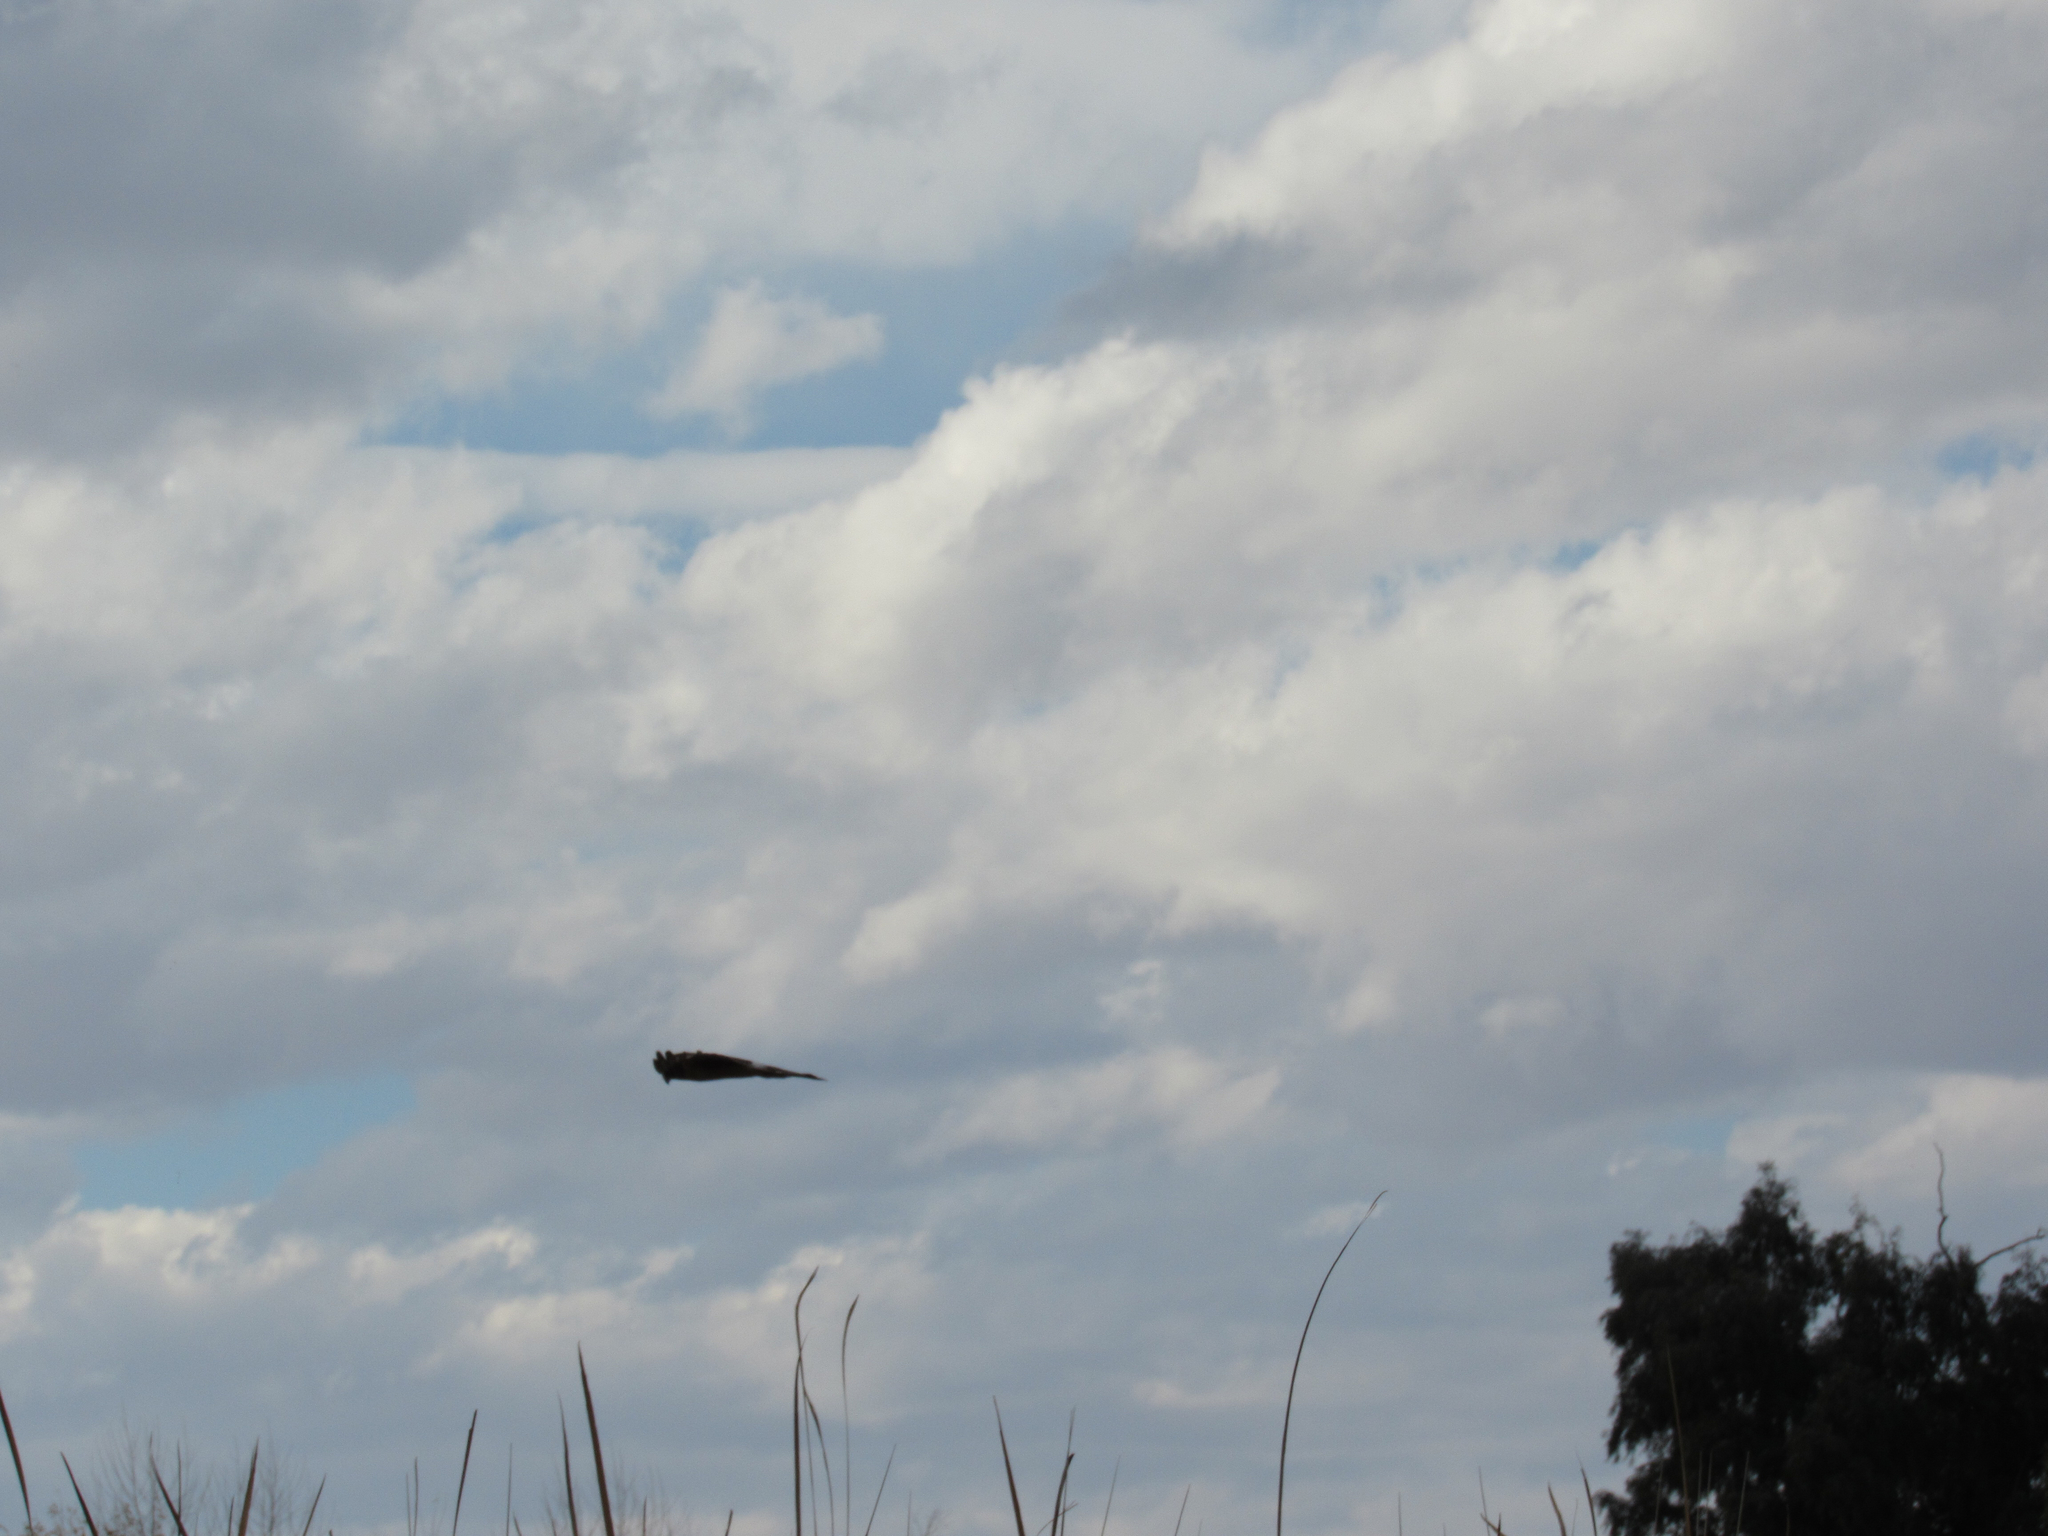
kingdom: Animalia
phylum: Chordata
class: Aves
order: Accipitriformes
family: Accipitridae
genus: Circus
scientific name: Circus cyaneus
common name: Hen harrier
